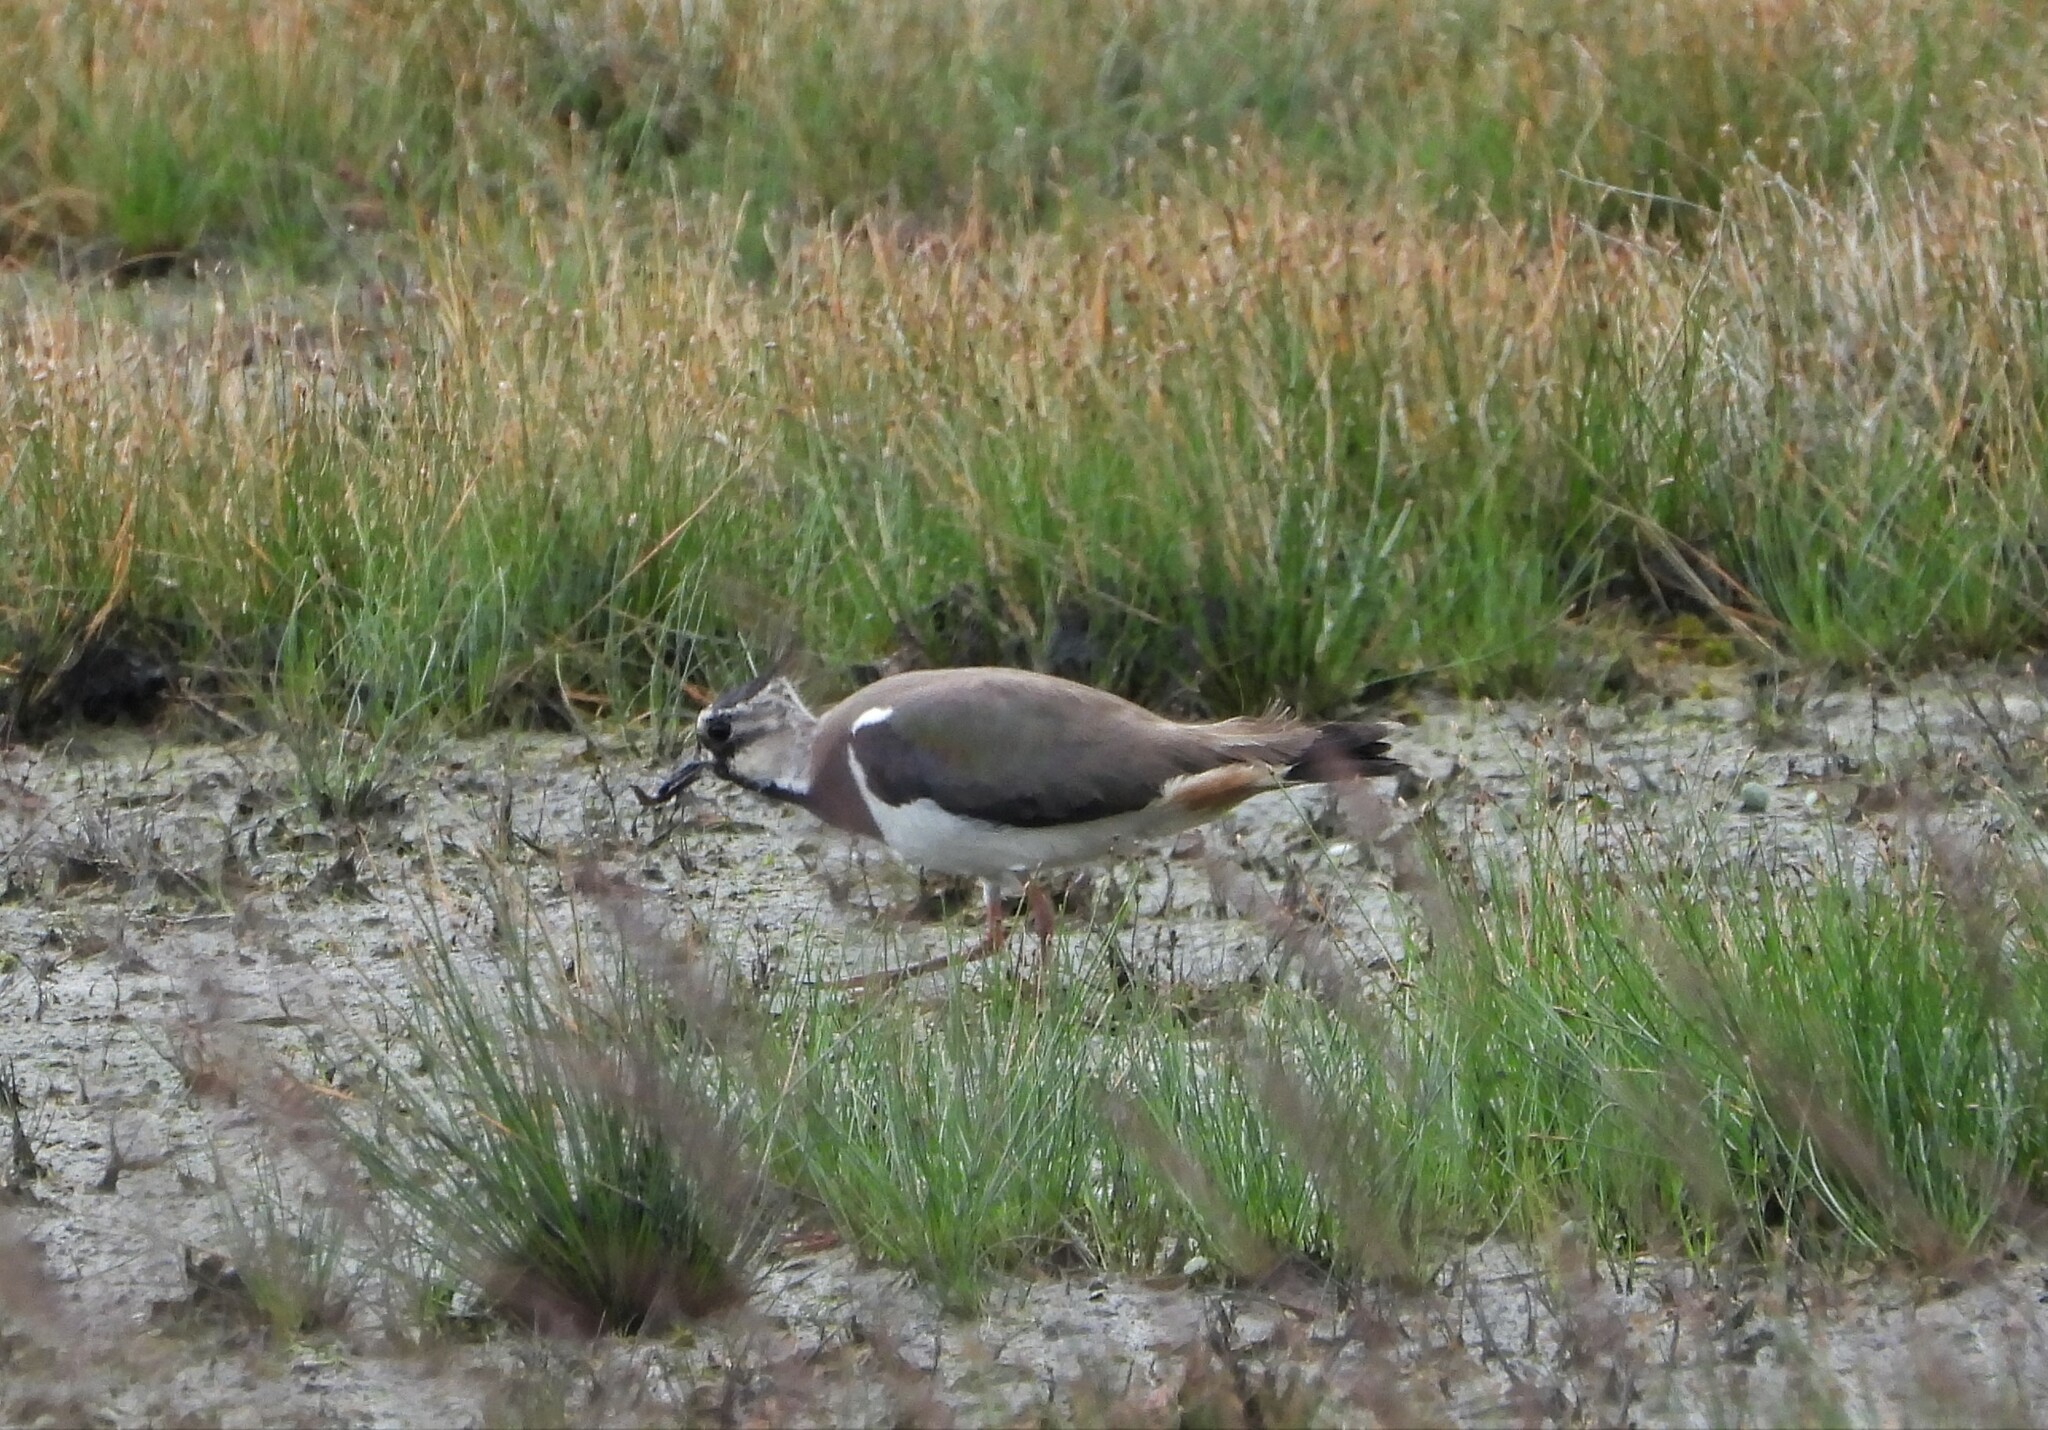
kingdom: Animalia
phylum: Chordata
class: Aves
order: Charadriiformes
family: Charadriidae
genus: Vanellus
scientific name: Vanellus vanellus
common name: Northern lapwing
